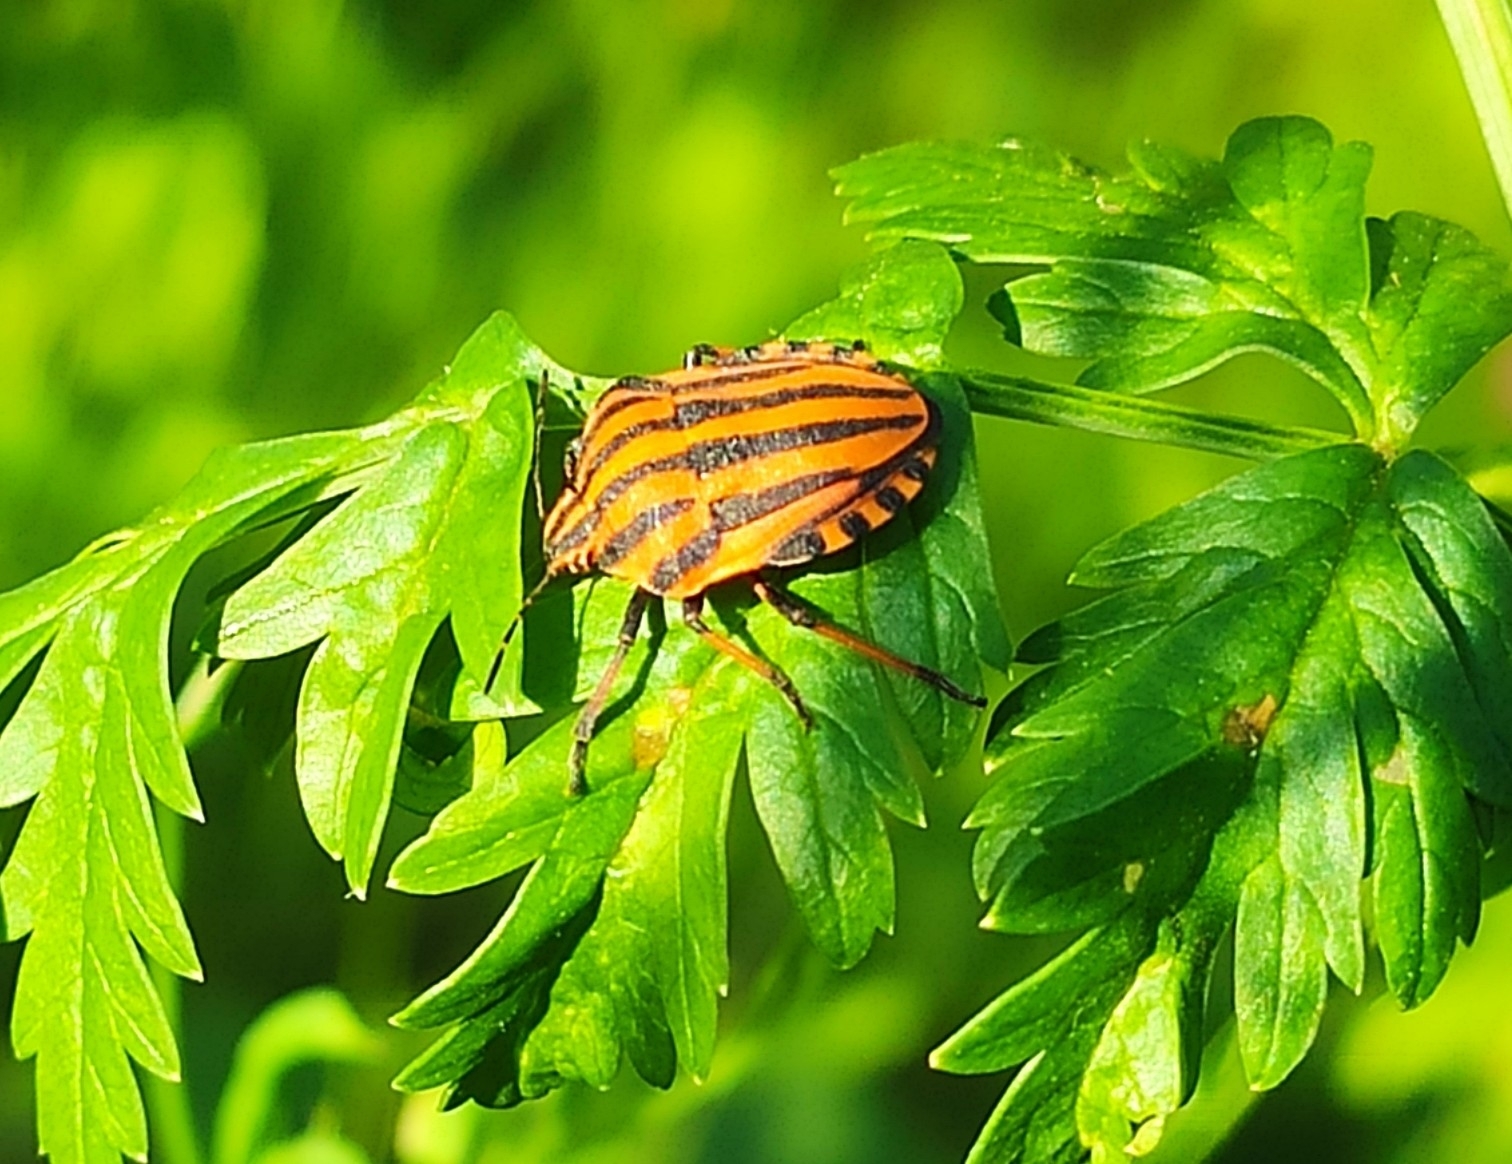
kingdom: Animalia
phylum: Arthropoda
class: Insecta
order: Hemiptera
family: Pentatomidae
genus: Graphosoma
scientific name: Graphosoma italicum
